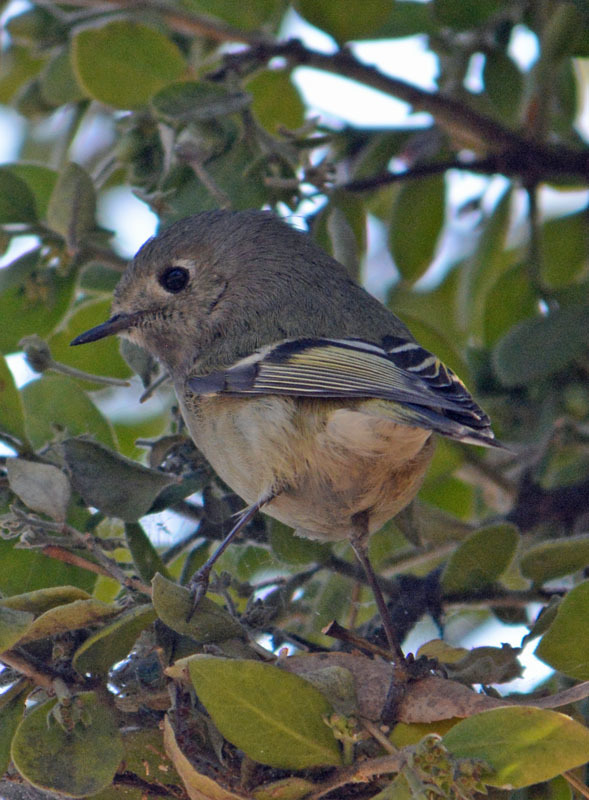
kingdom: Animalia
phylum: Chordata
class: Aves
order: Passeriformes
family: Regulidae
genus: Regulus
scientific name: Regulus calendula
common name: Ruby-crowned kinglet
